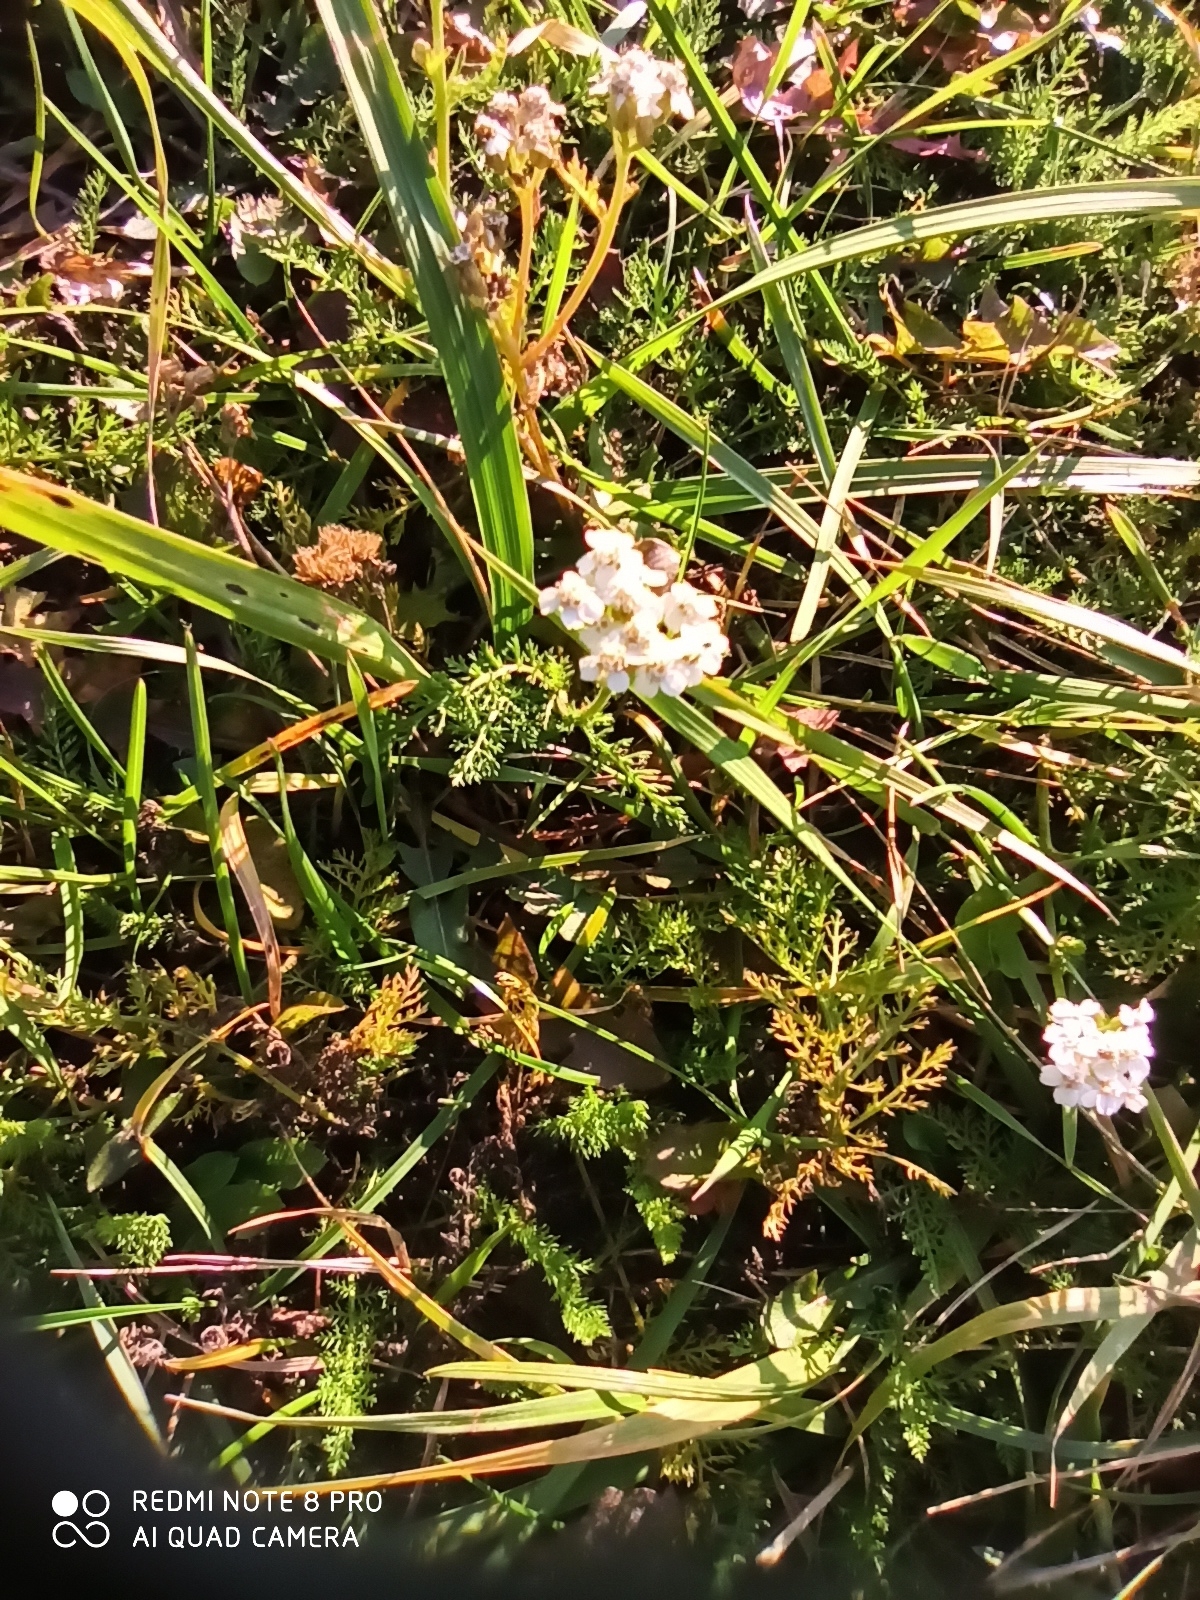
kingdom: Plantae
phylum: Tracheophyta
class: Magnoliopsida
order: Asterales
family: Asteraceae
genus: Achillea
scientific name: Achillea millefolium
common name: Yarrow
